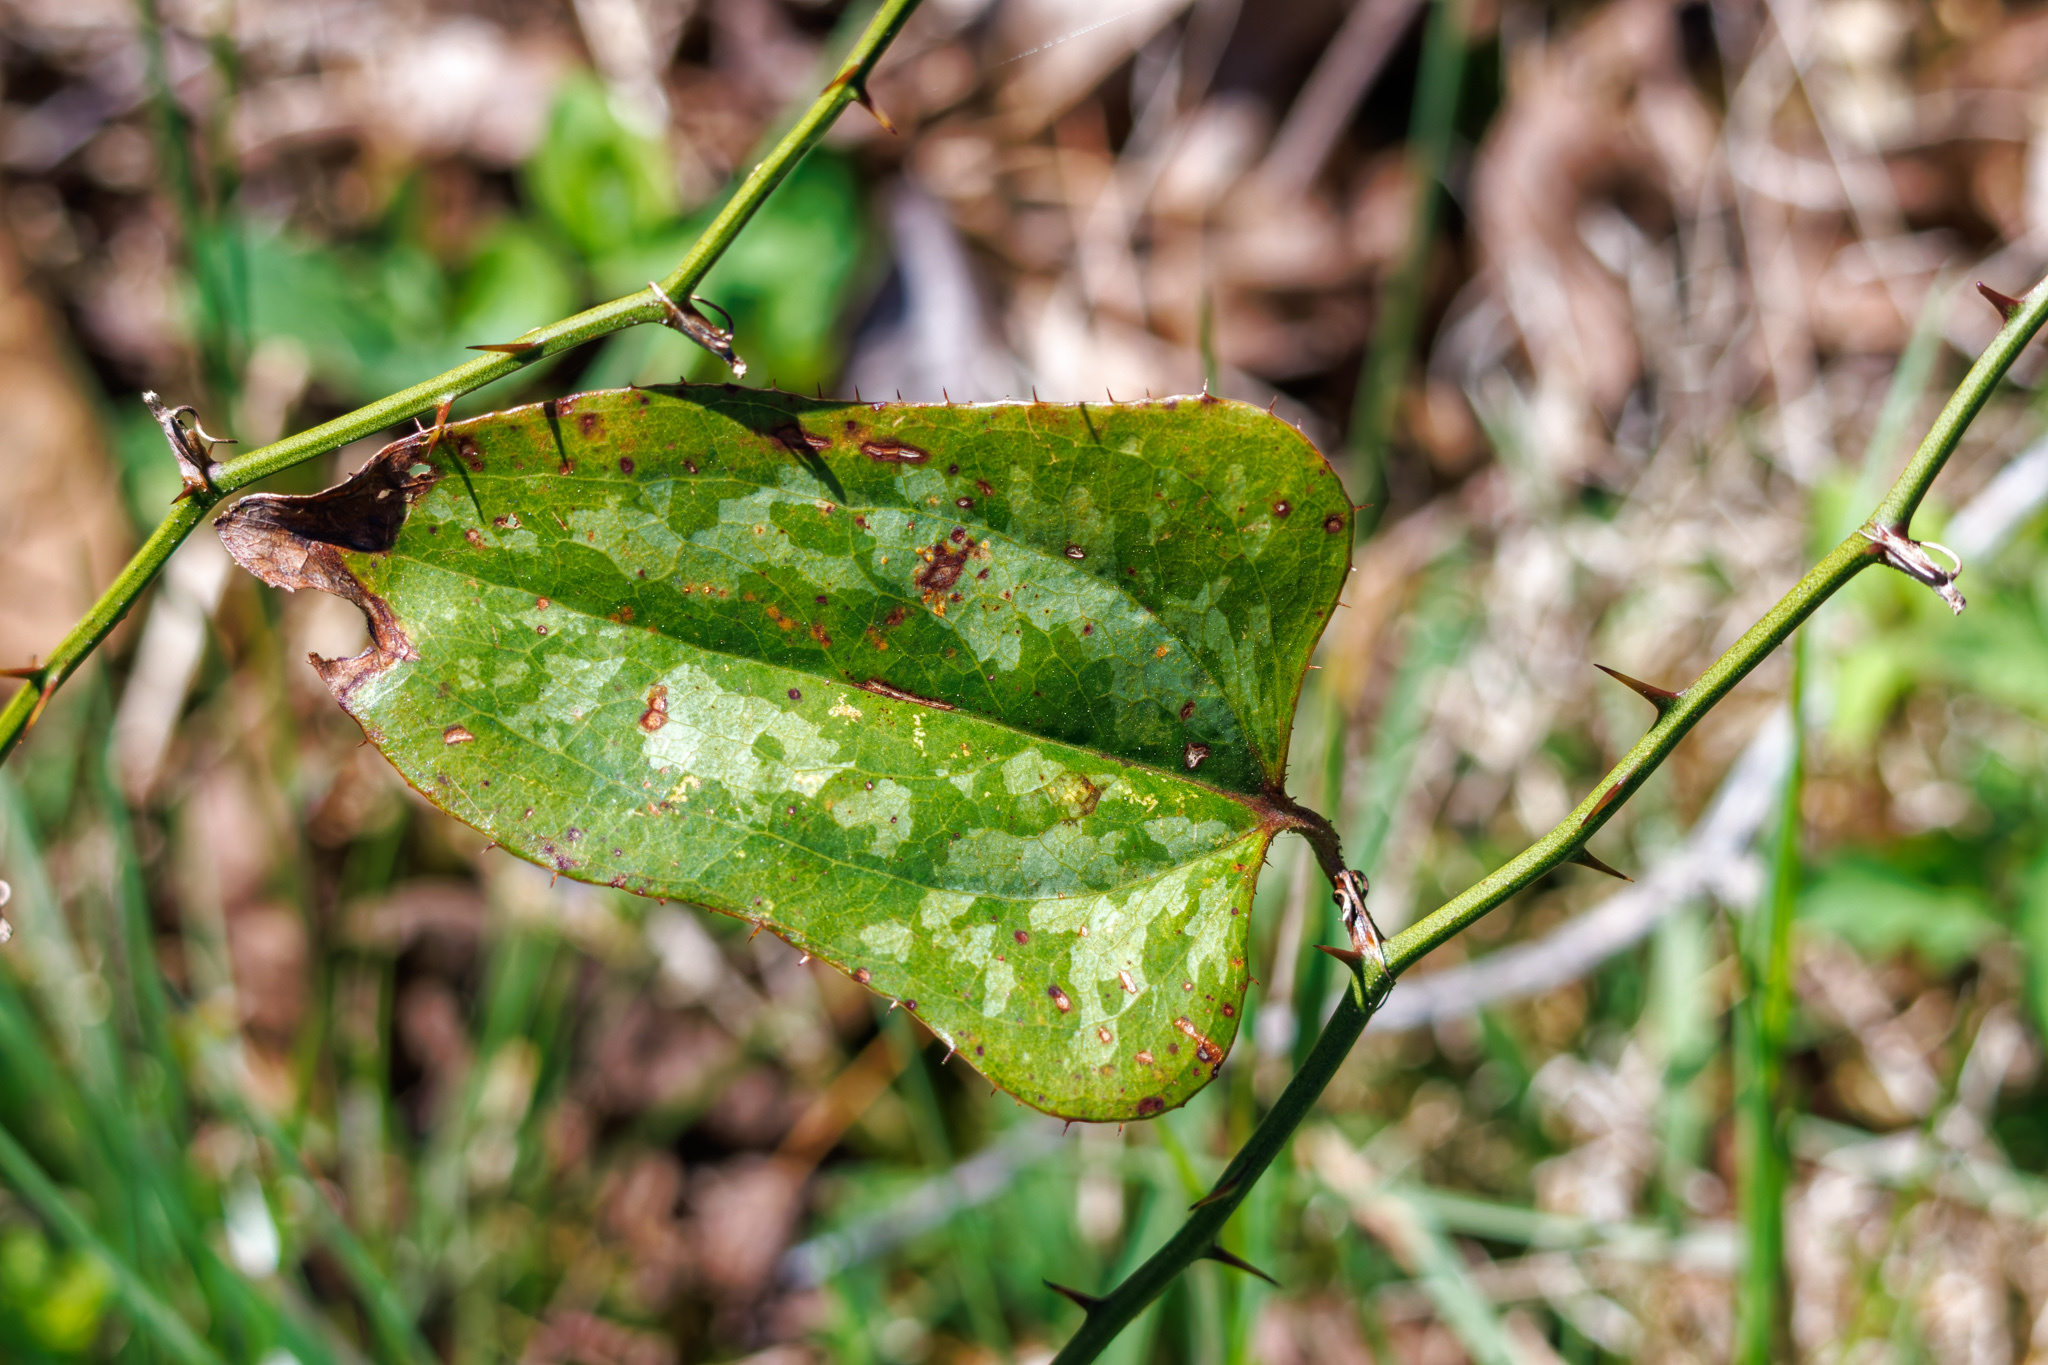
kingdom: Plantae
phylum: Tracheophyta
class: Liliopsida
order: Liliales
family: Smilacaceae
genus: Smilax
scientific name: Smilax bona-nox
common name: Catbrier
